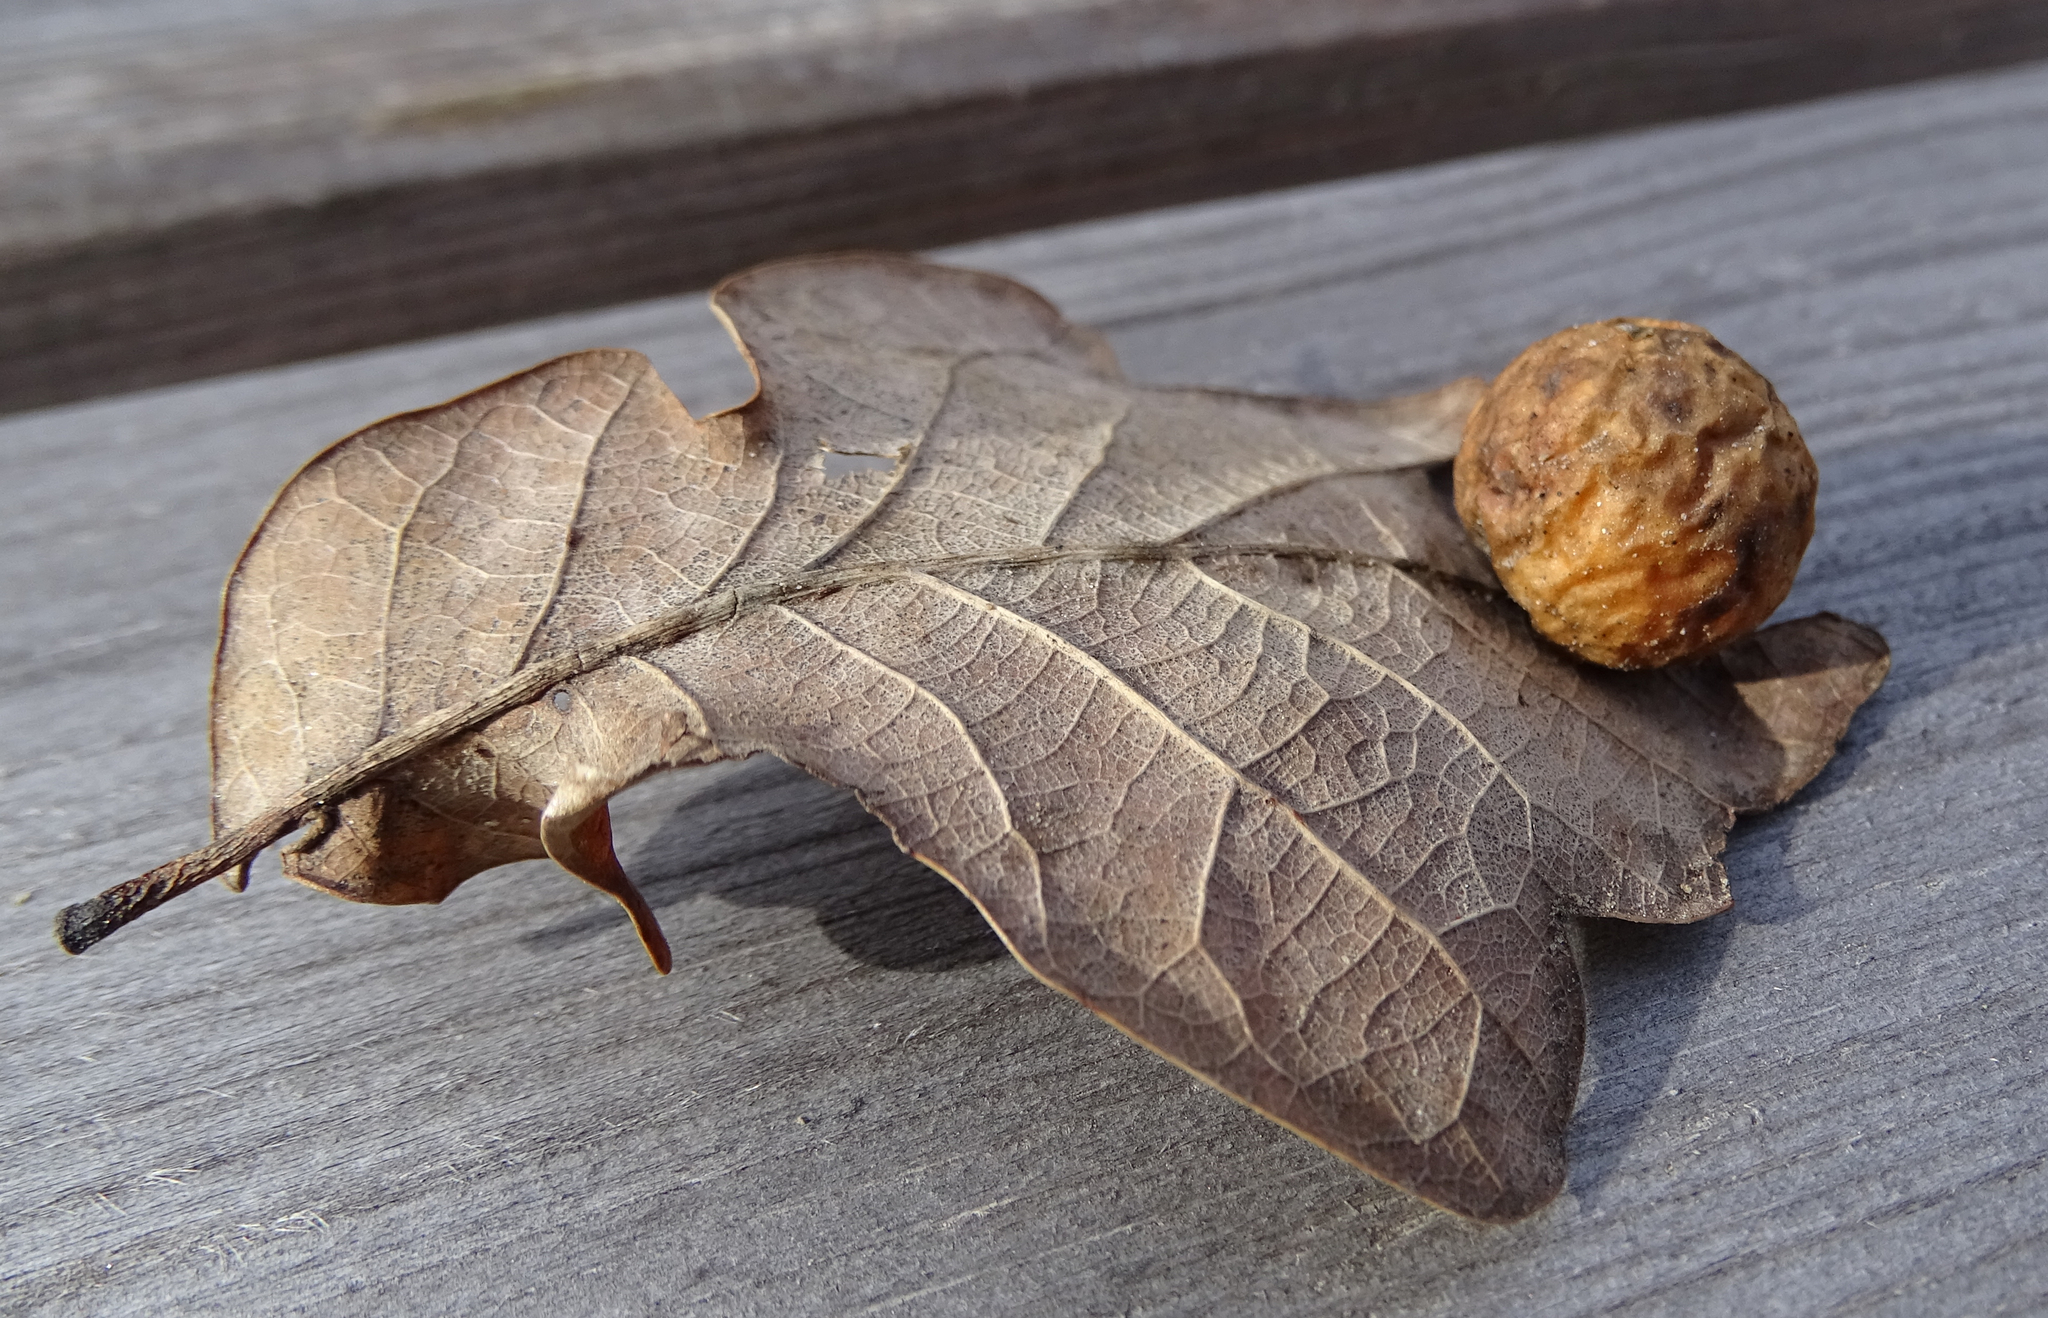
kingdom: Animalia
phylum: Arthropoda
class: Insecta
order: Hymenoptera
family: Cynipidae
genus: Cynips
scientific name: Cynips quercusfolii
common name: Cherry gall
